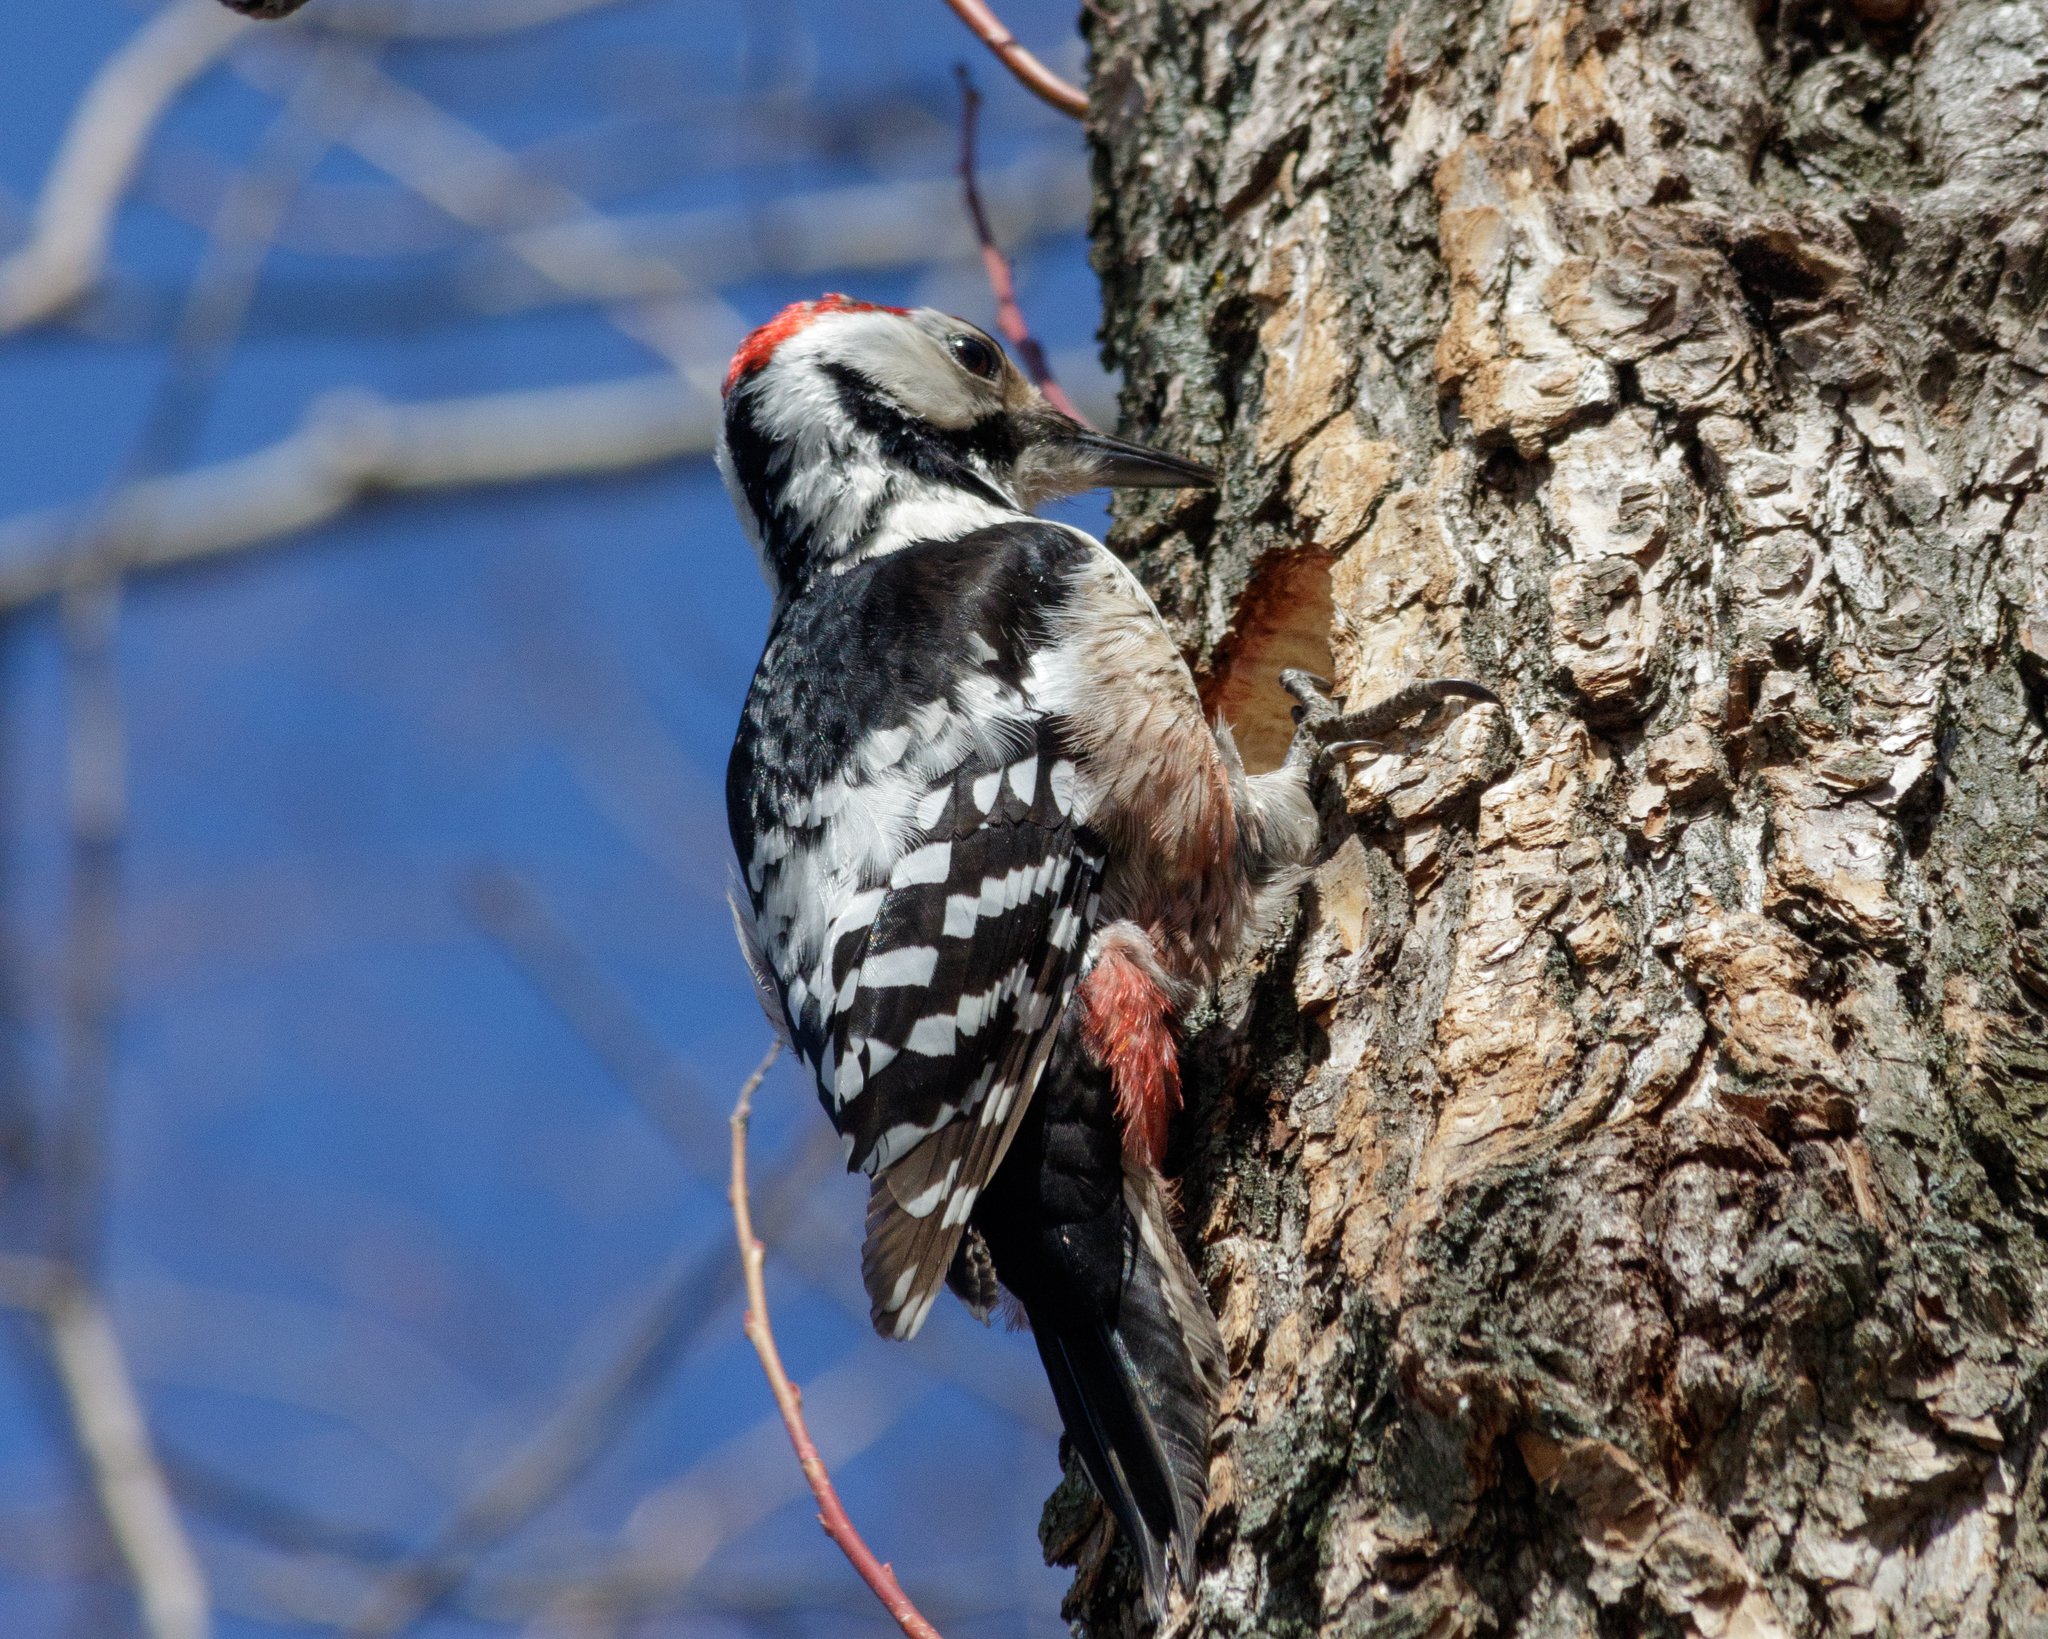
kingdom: Animalia
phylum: Chordata
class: Aves
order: Piciformes
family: Picidae
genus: Dendrocopos
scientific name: Dendrocopos leucotos
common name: White-backed woodpecker
